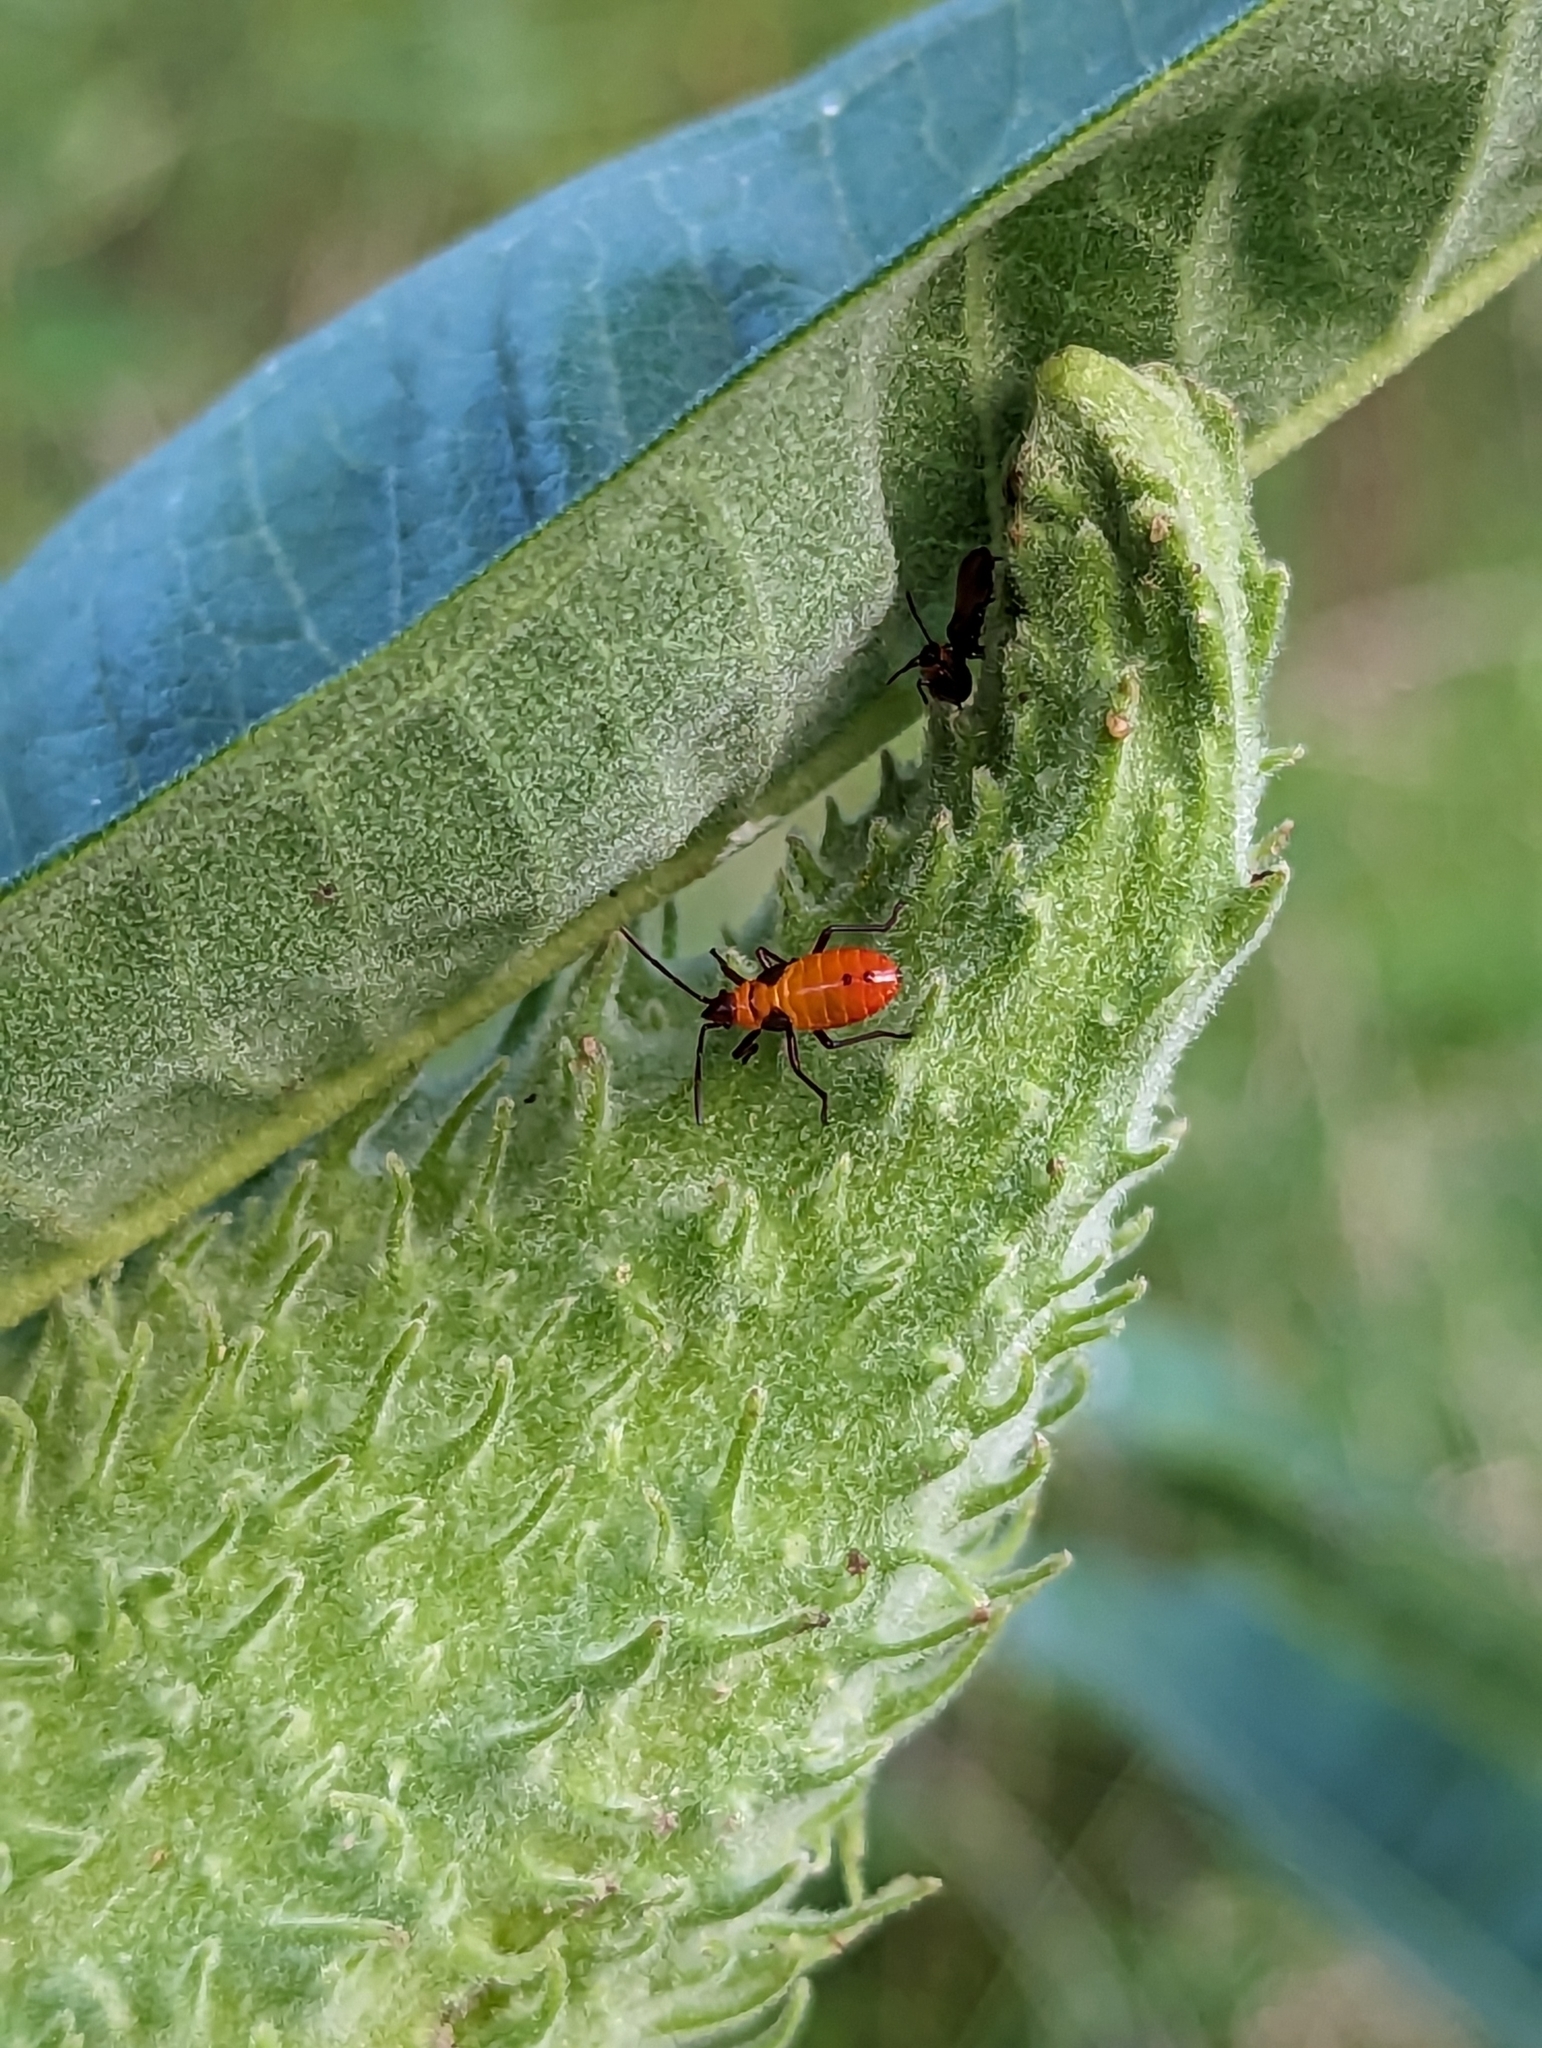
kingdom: Animalia
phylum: Arthropoda
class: Insecta
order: Hemiptera
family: Lygaeidae
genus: Oncopeltus
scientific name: Oncopeltus fasciatus
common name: Large milkweed bug
